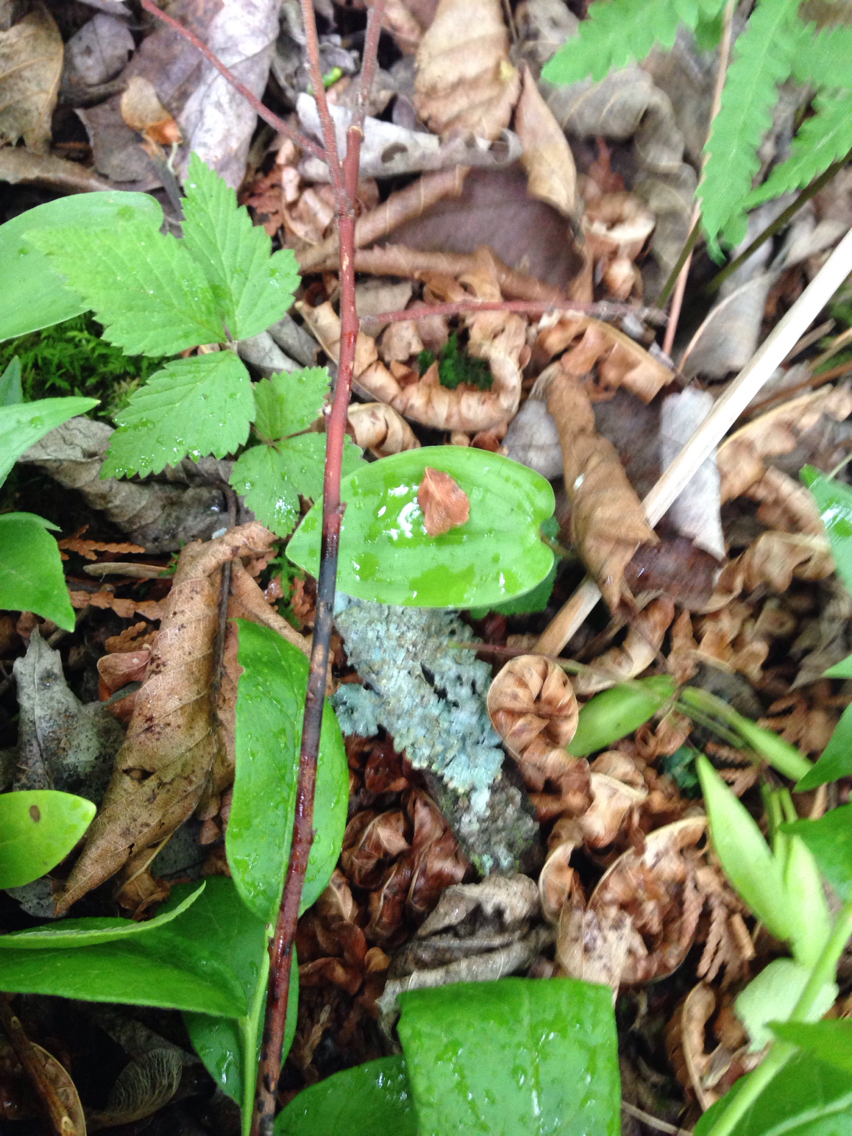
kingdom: Plantae
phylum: Tracheophyta
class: Liliopsida
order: Asparagales
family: Asparagaceae
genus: Maianthemum
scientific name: Maianthemum canadense
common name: False lily-of-the-valley
